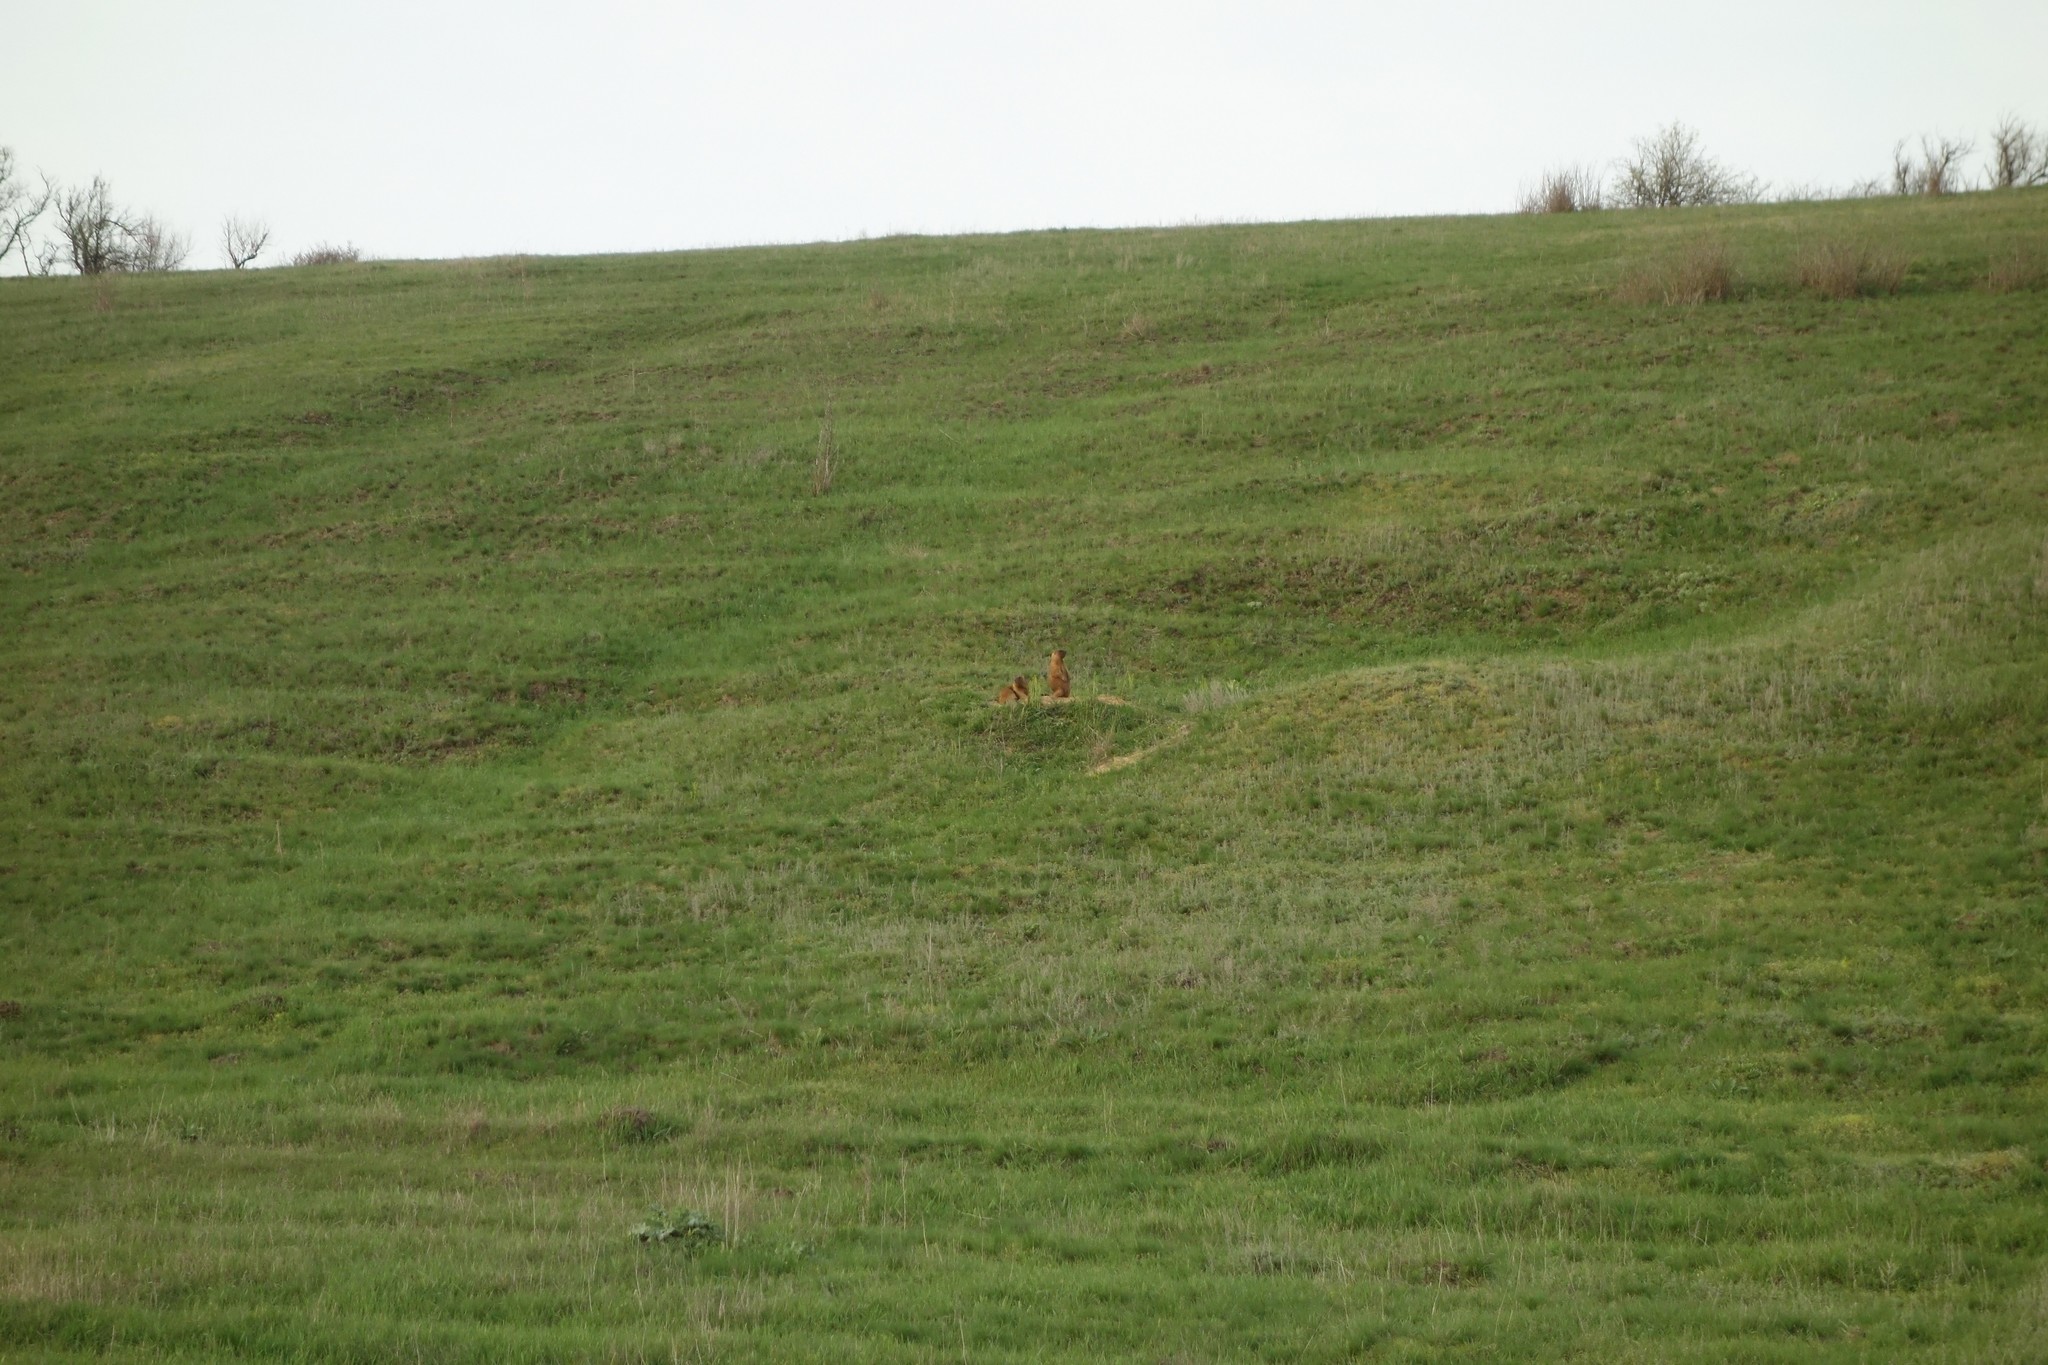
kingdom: Animalia
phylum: Chordata
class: Mammalia
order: Rodentia
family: Sciuridae
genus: Marmota
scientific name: Marmota bobak
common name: Bobak marmot
